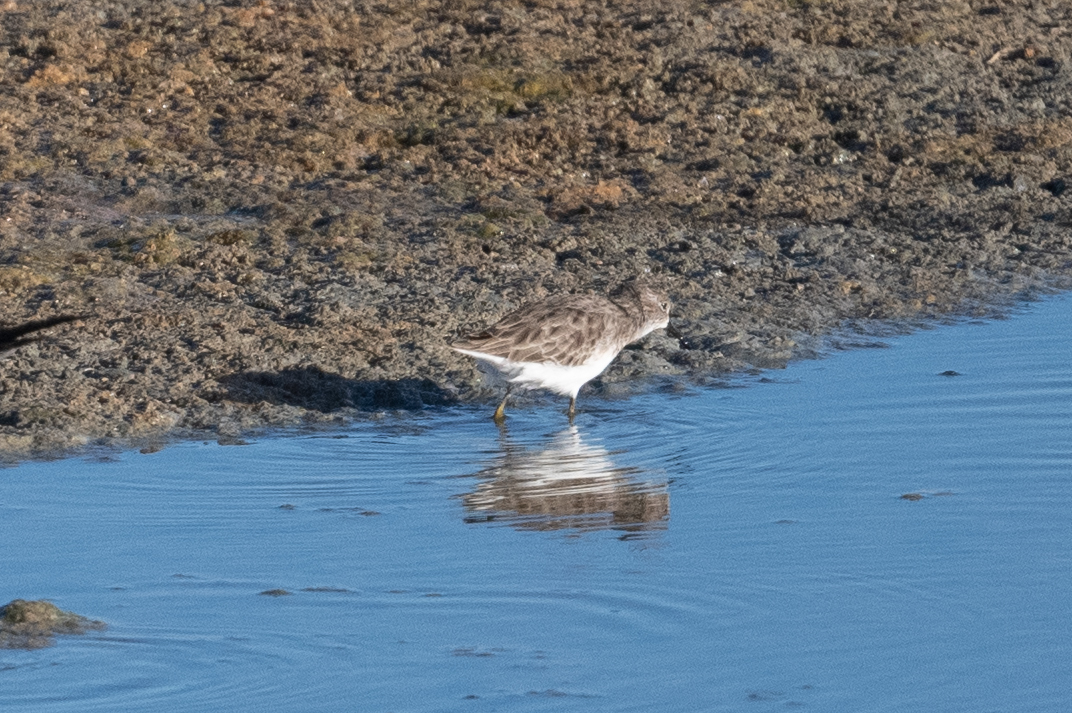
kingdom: Animalia
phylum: Chordata
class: Aves
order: Charadriiformes
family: Scolopacidae
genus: Calidris
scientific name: Calidris minutilla
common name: Least sandpiper
